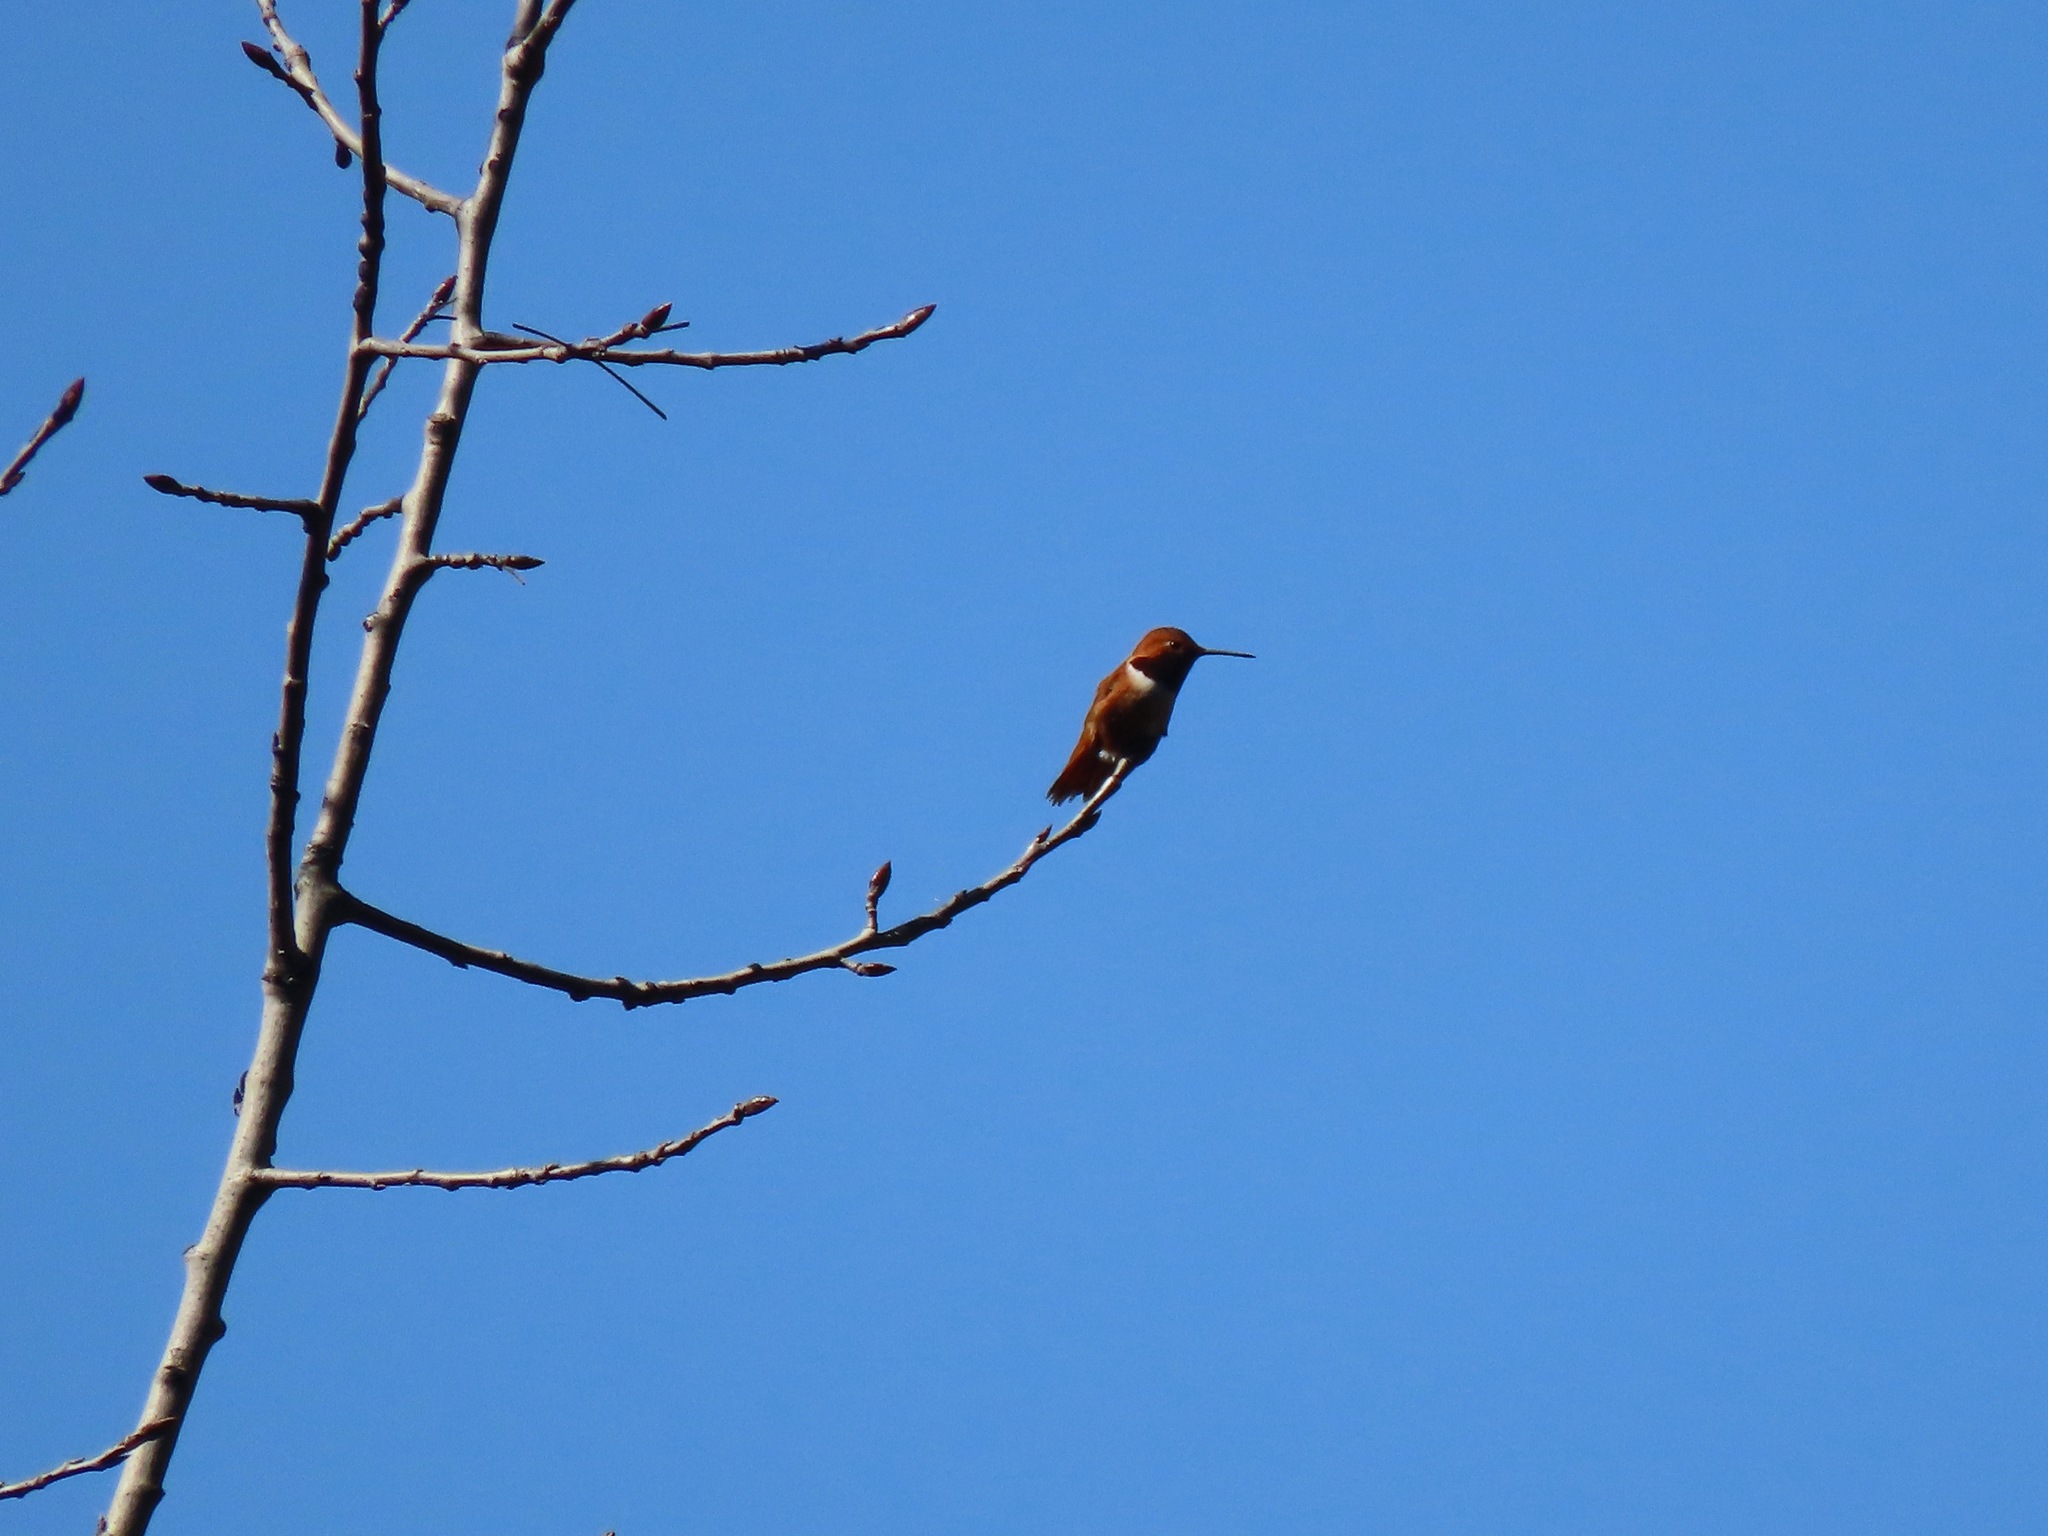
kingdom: Animalia
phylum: Chordata
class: Aves
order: Apodiformes
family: Trochilidae
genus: Selasphorus
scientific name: Selasphorus rufus
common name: Rufous hummingbird
